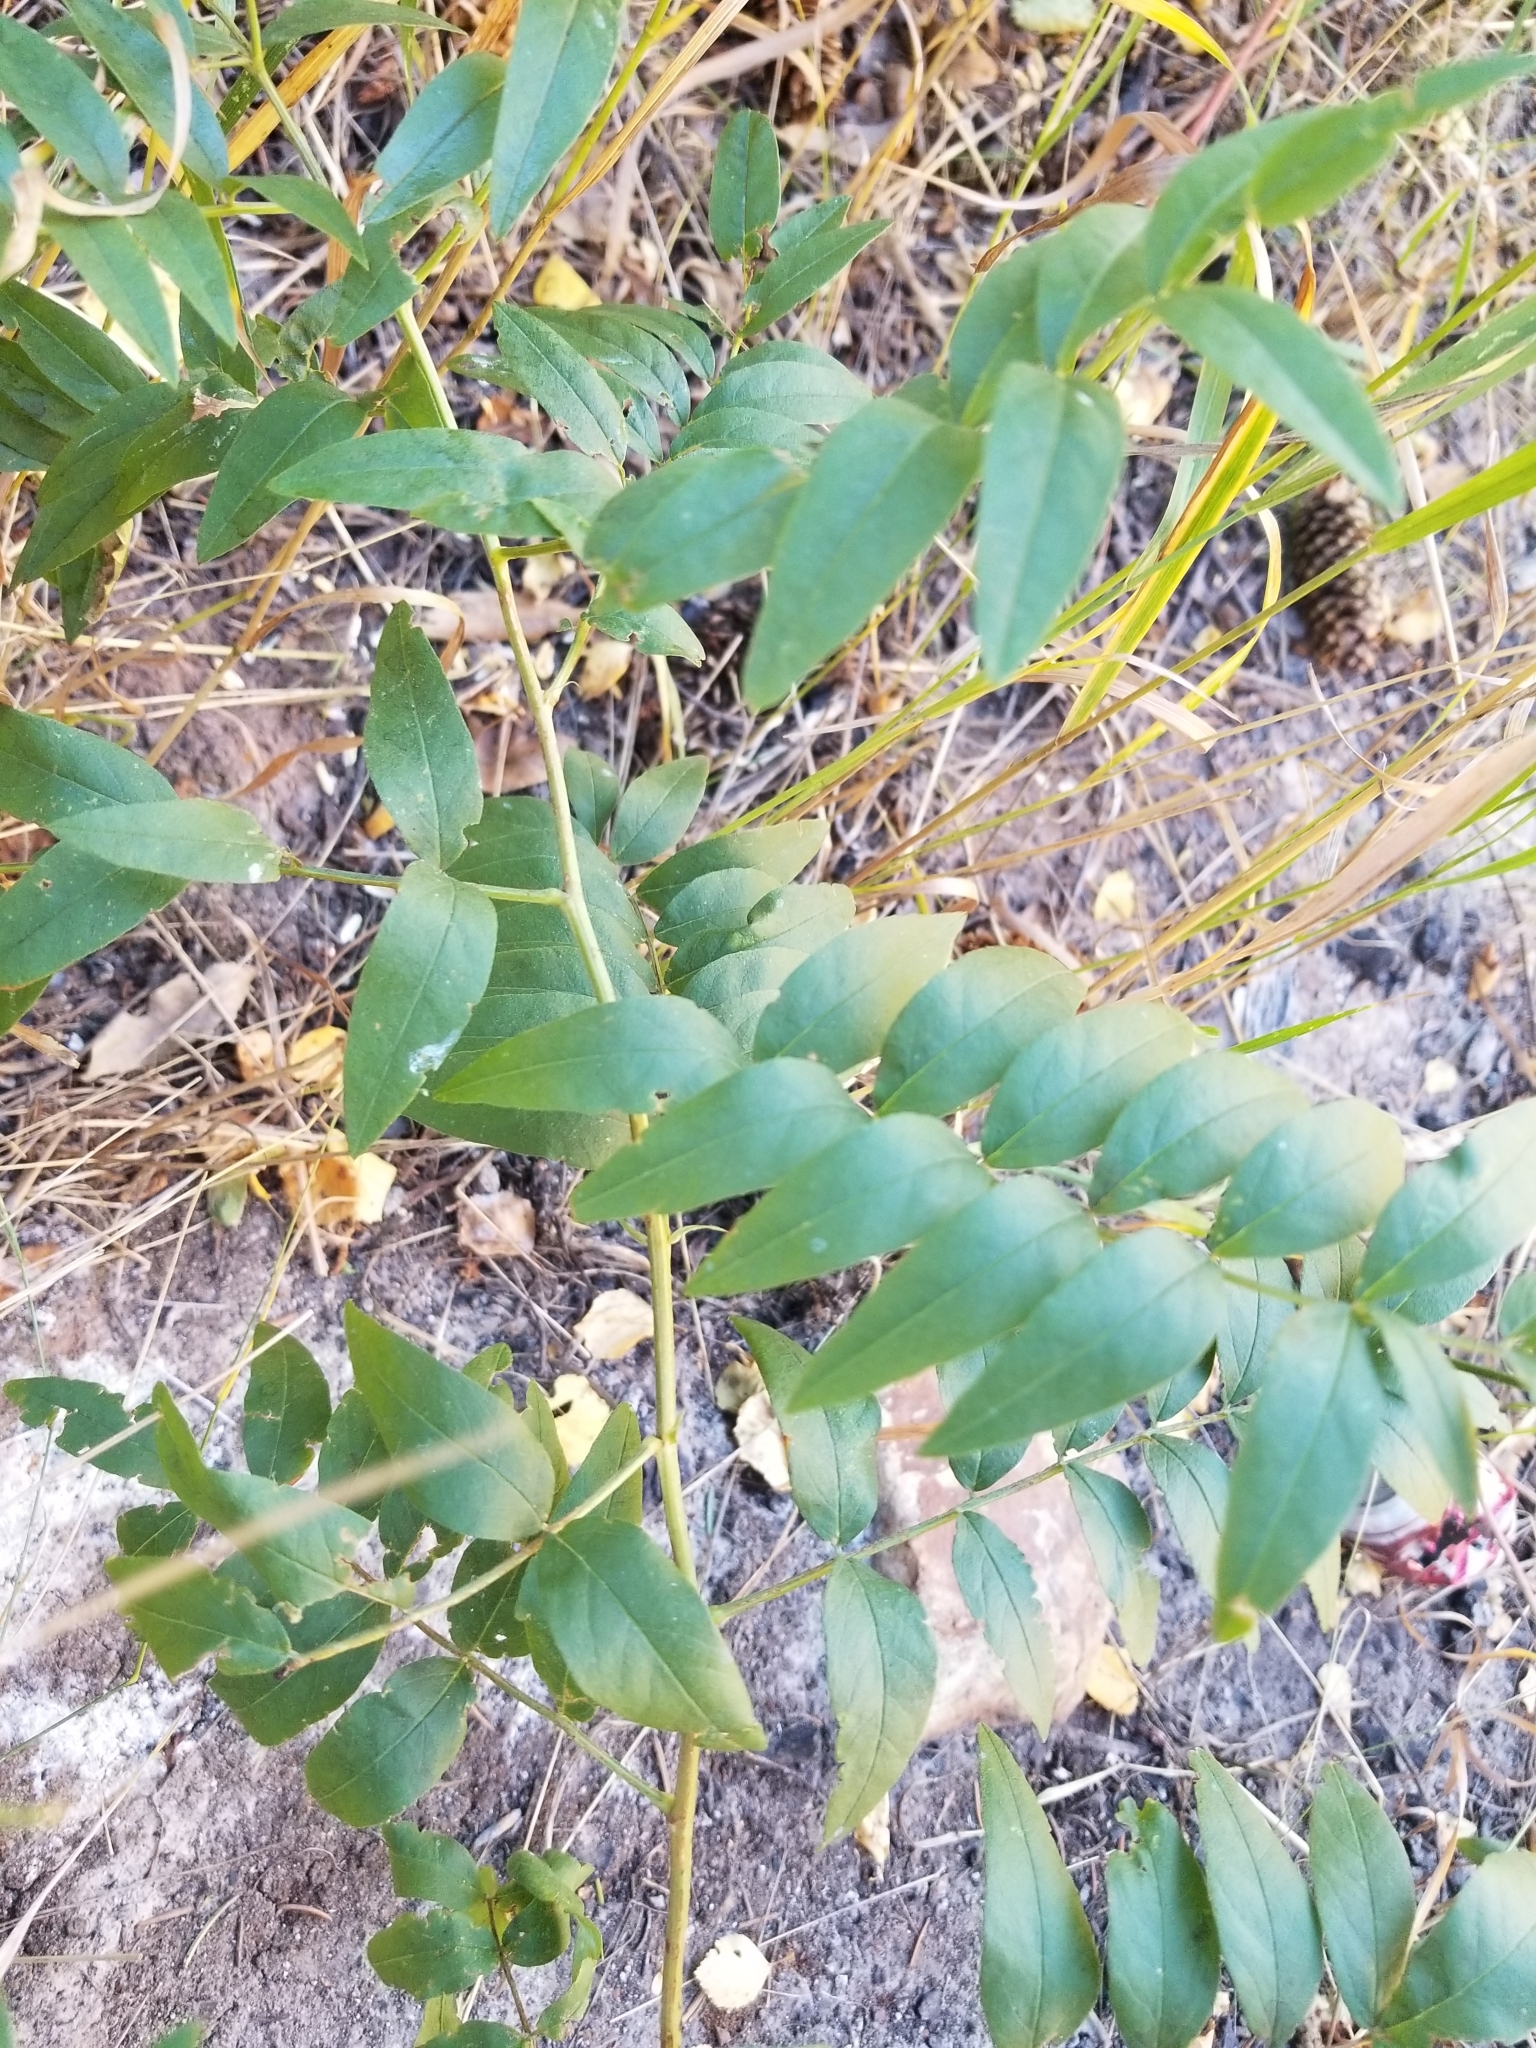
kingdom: Plantae
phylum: Tracheophyta
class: Magnoliopsida
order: Fabales
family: Fabaceae
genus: Glycyrrhiza
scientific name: Glycyrrhiza lepidota
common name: American liquorice
